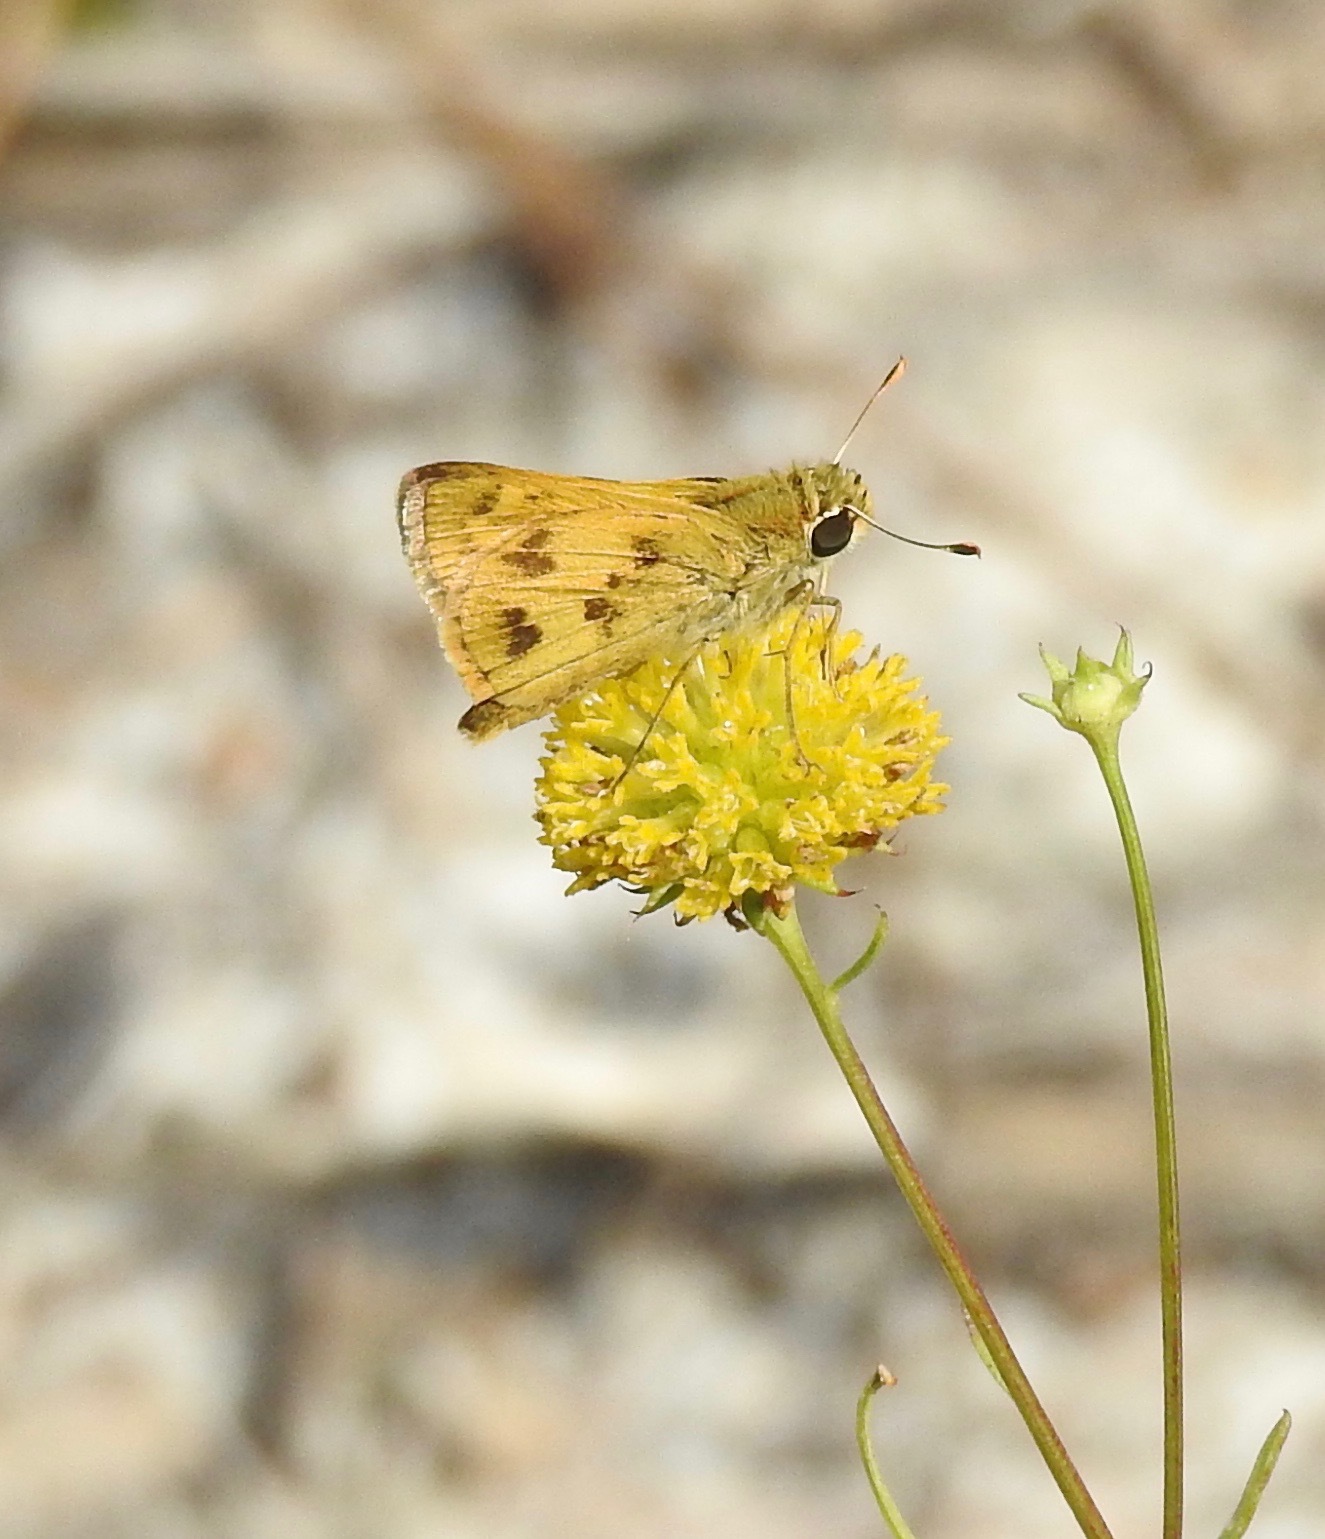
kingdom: Animalia
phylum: Arthropoda
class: Insecta
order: Lepidoptera
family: Hesperiidae
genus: Polites
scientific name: Polites vibex
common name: Whirlabout
